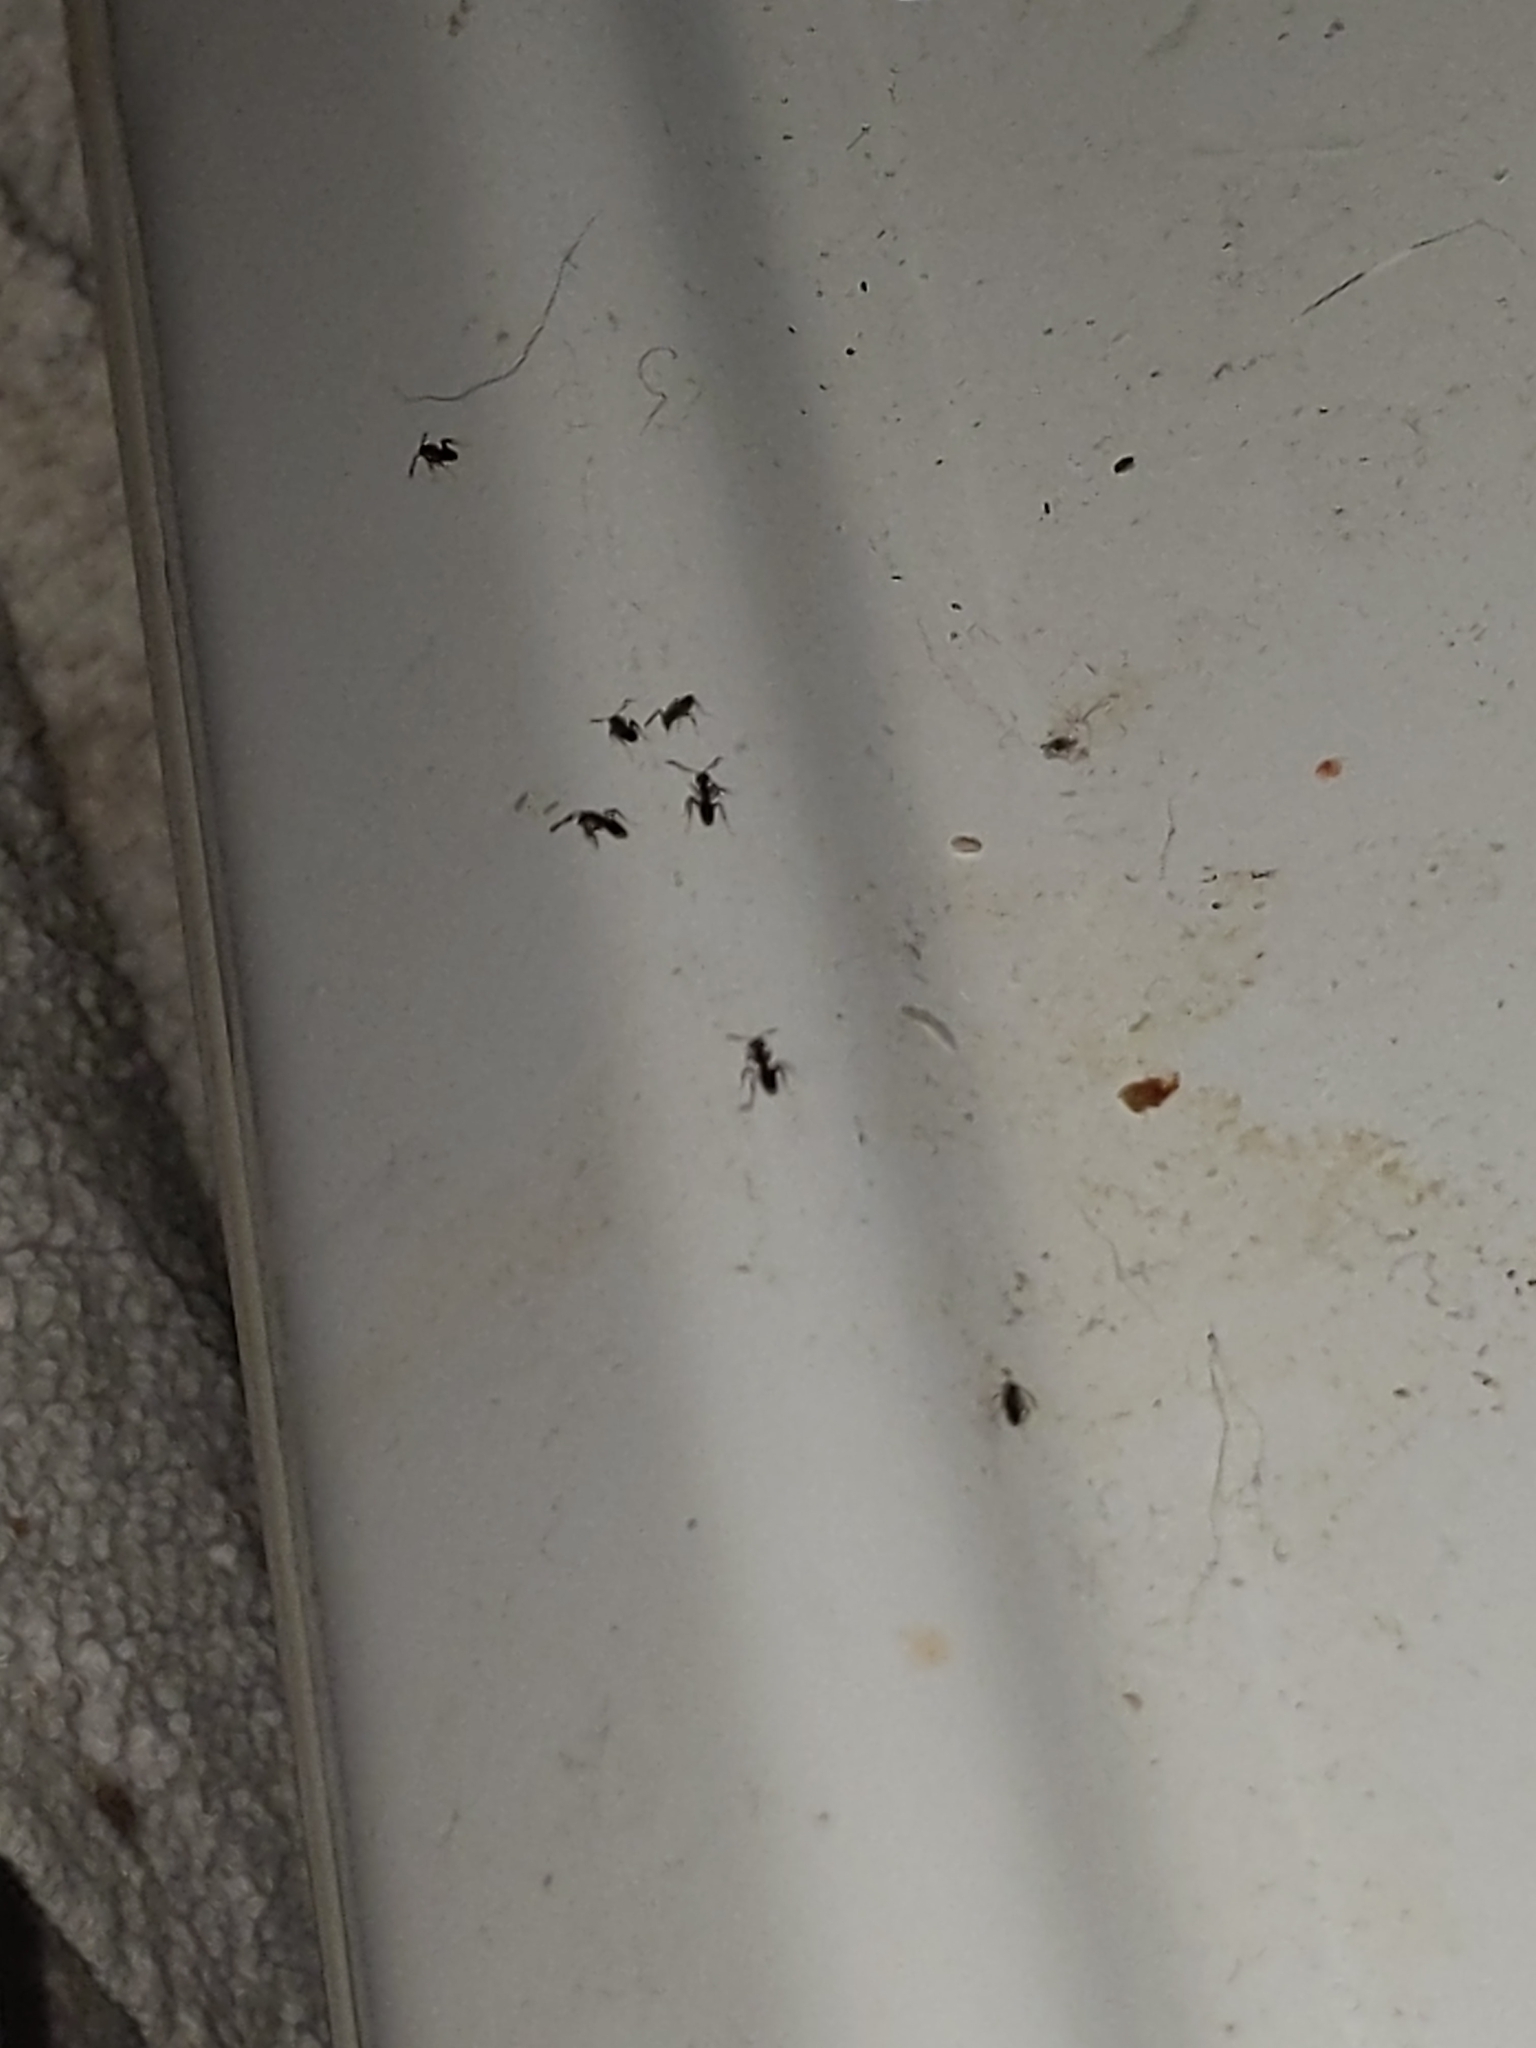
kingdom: Animalia
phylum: Arthropoda
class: Insecta
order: Hymenoptera
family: Formicidae
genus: Tapinoma
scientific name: Tapinoma sessile
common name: Odorous house ant
